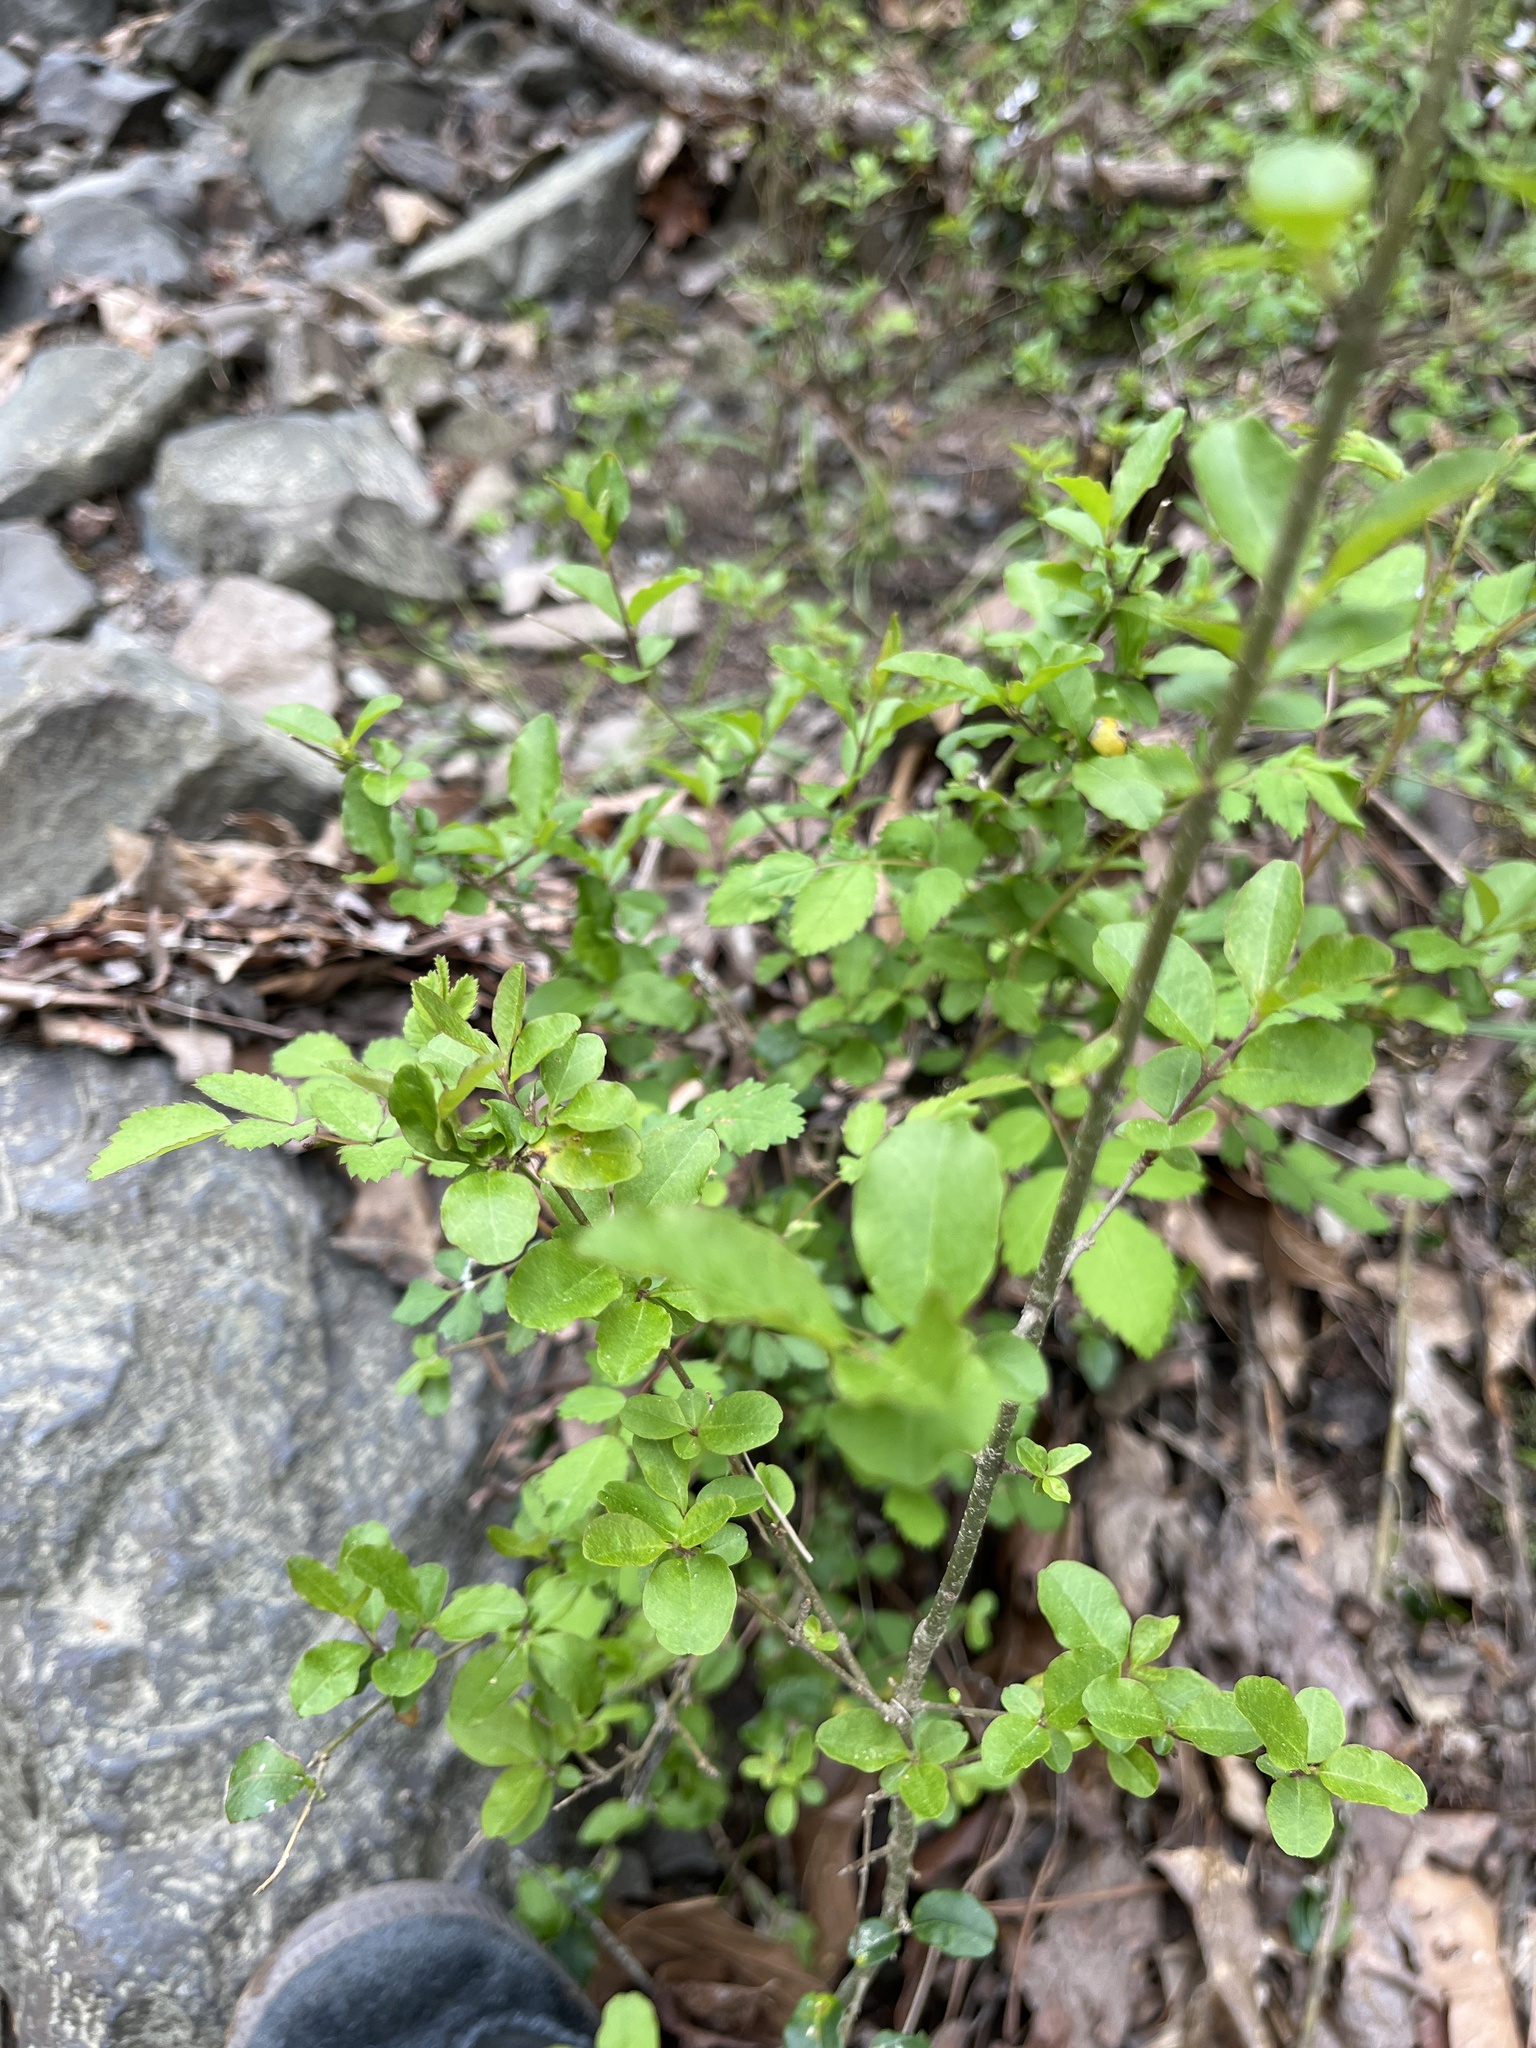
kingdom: Plantae
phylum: Tracheophyta
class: Magnoliopsida
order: Lamiales
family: Oleaceae
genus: Ligustrum
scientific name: Ligustrum sinense
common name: Chinese privet
